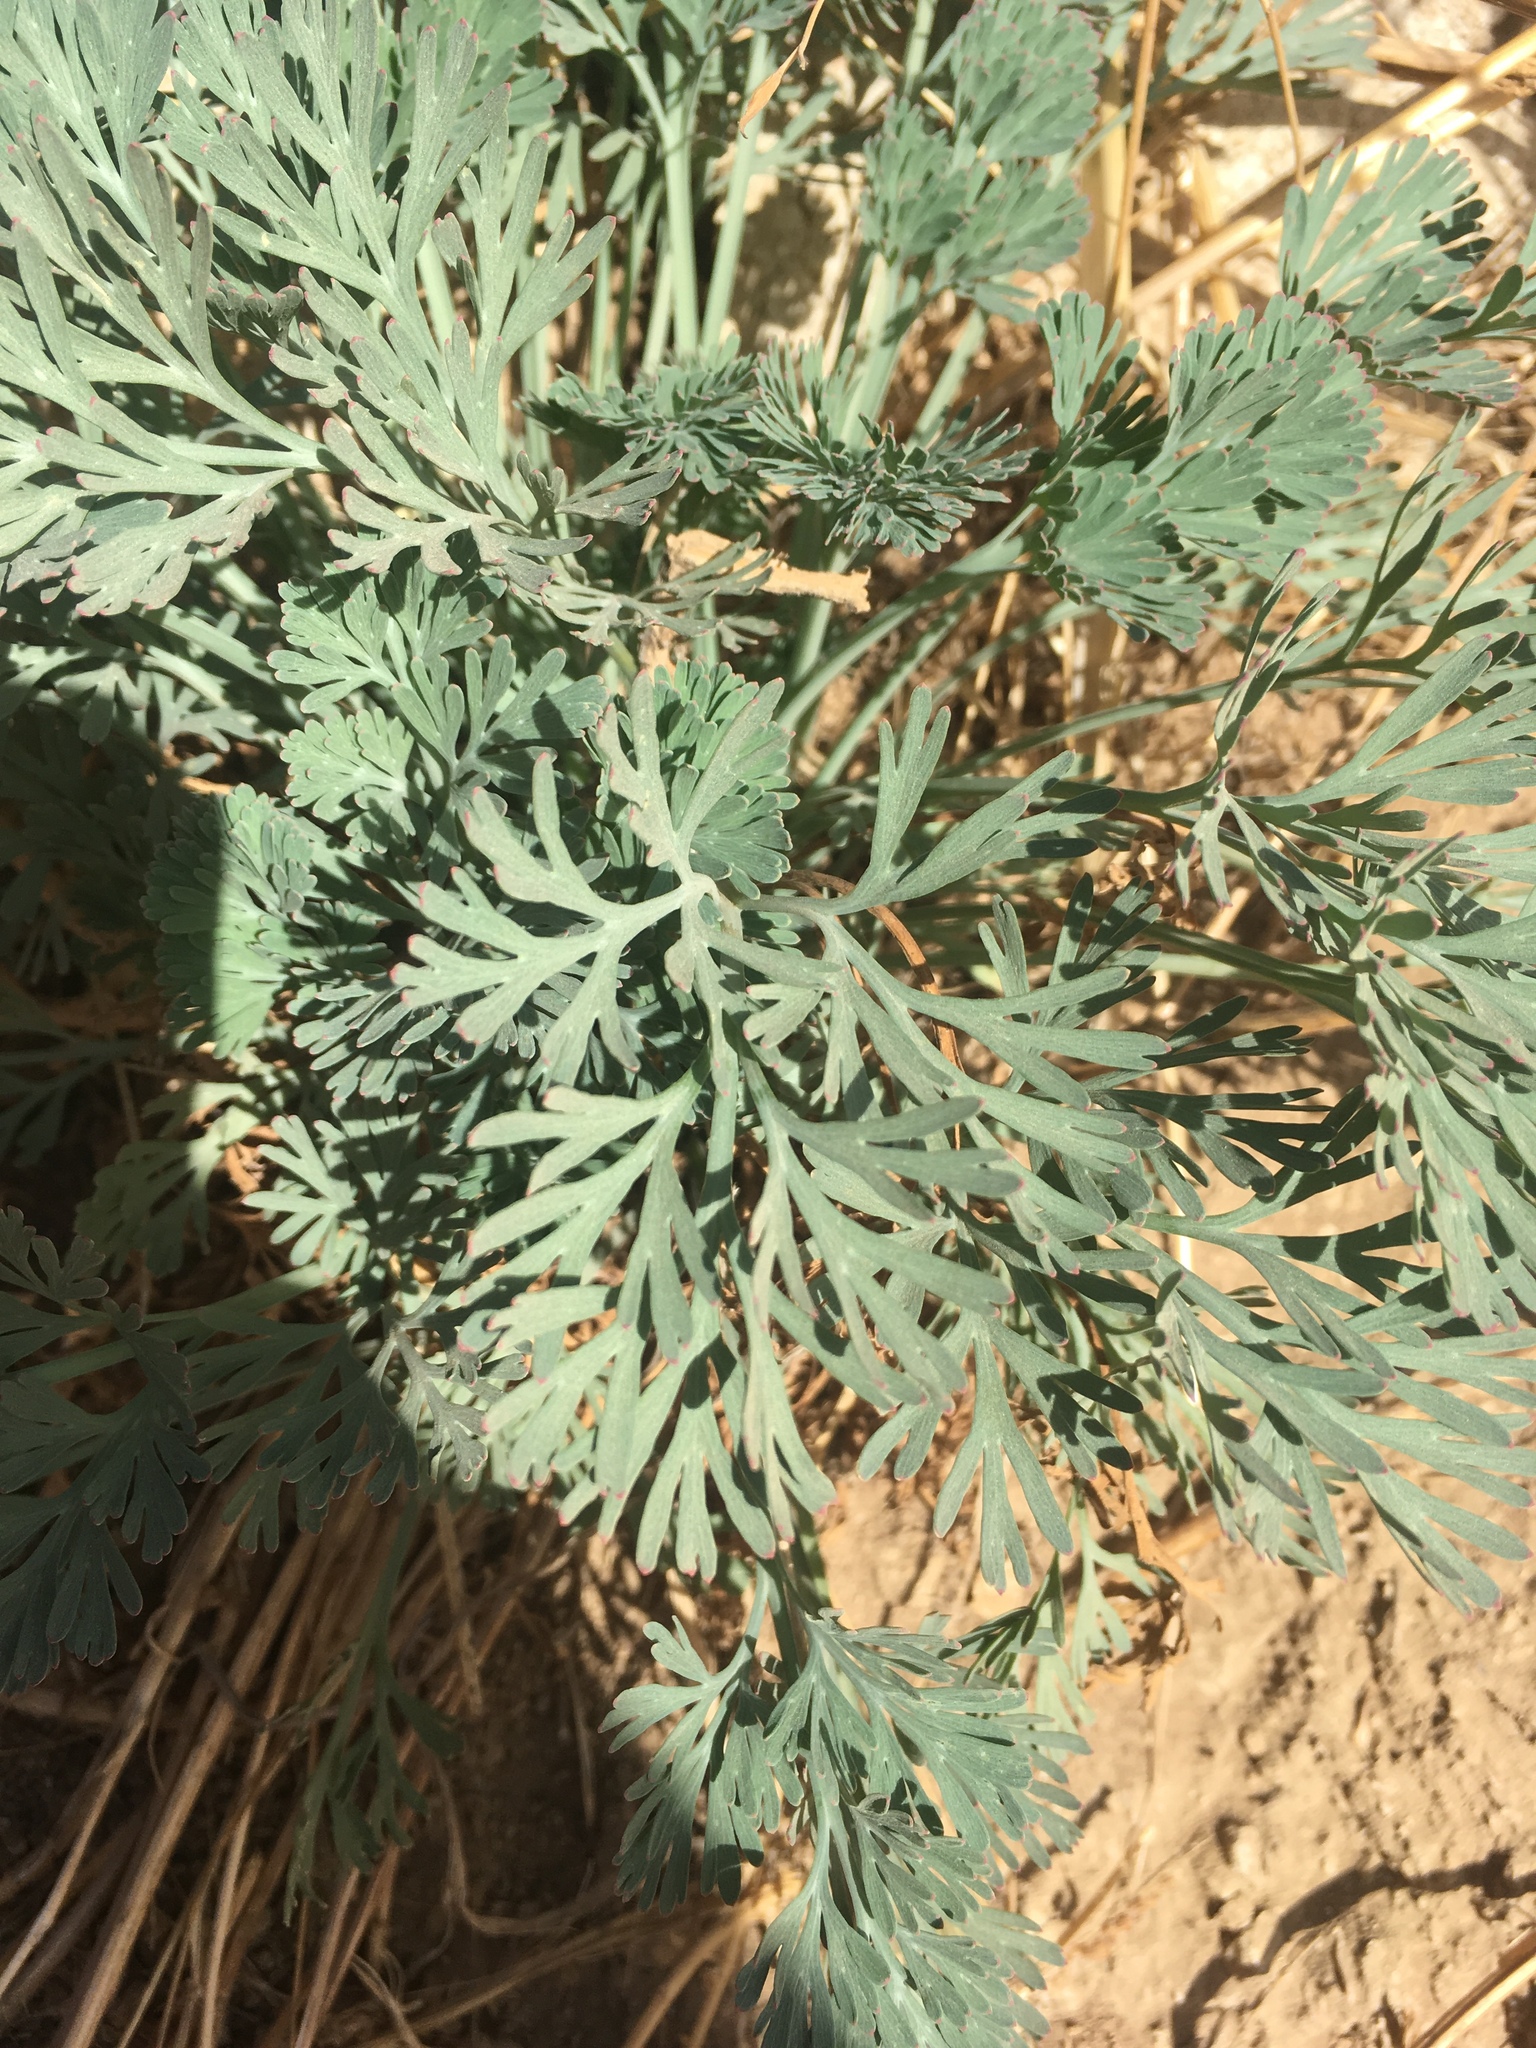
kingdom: Plantae
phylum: Tracheophyta
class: Magnoliopsida
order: Ranunculales
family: Papaveraceae
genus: Eschscholzia
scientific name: Eschscholzia californica
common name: California poppy
